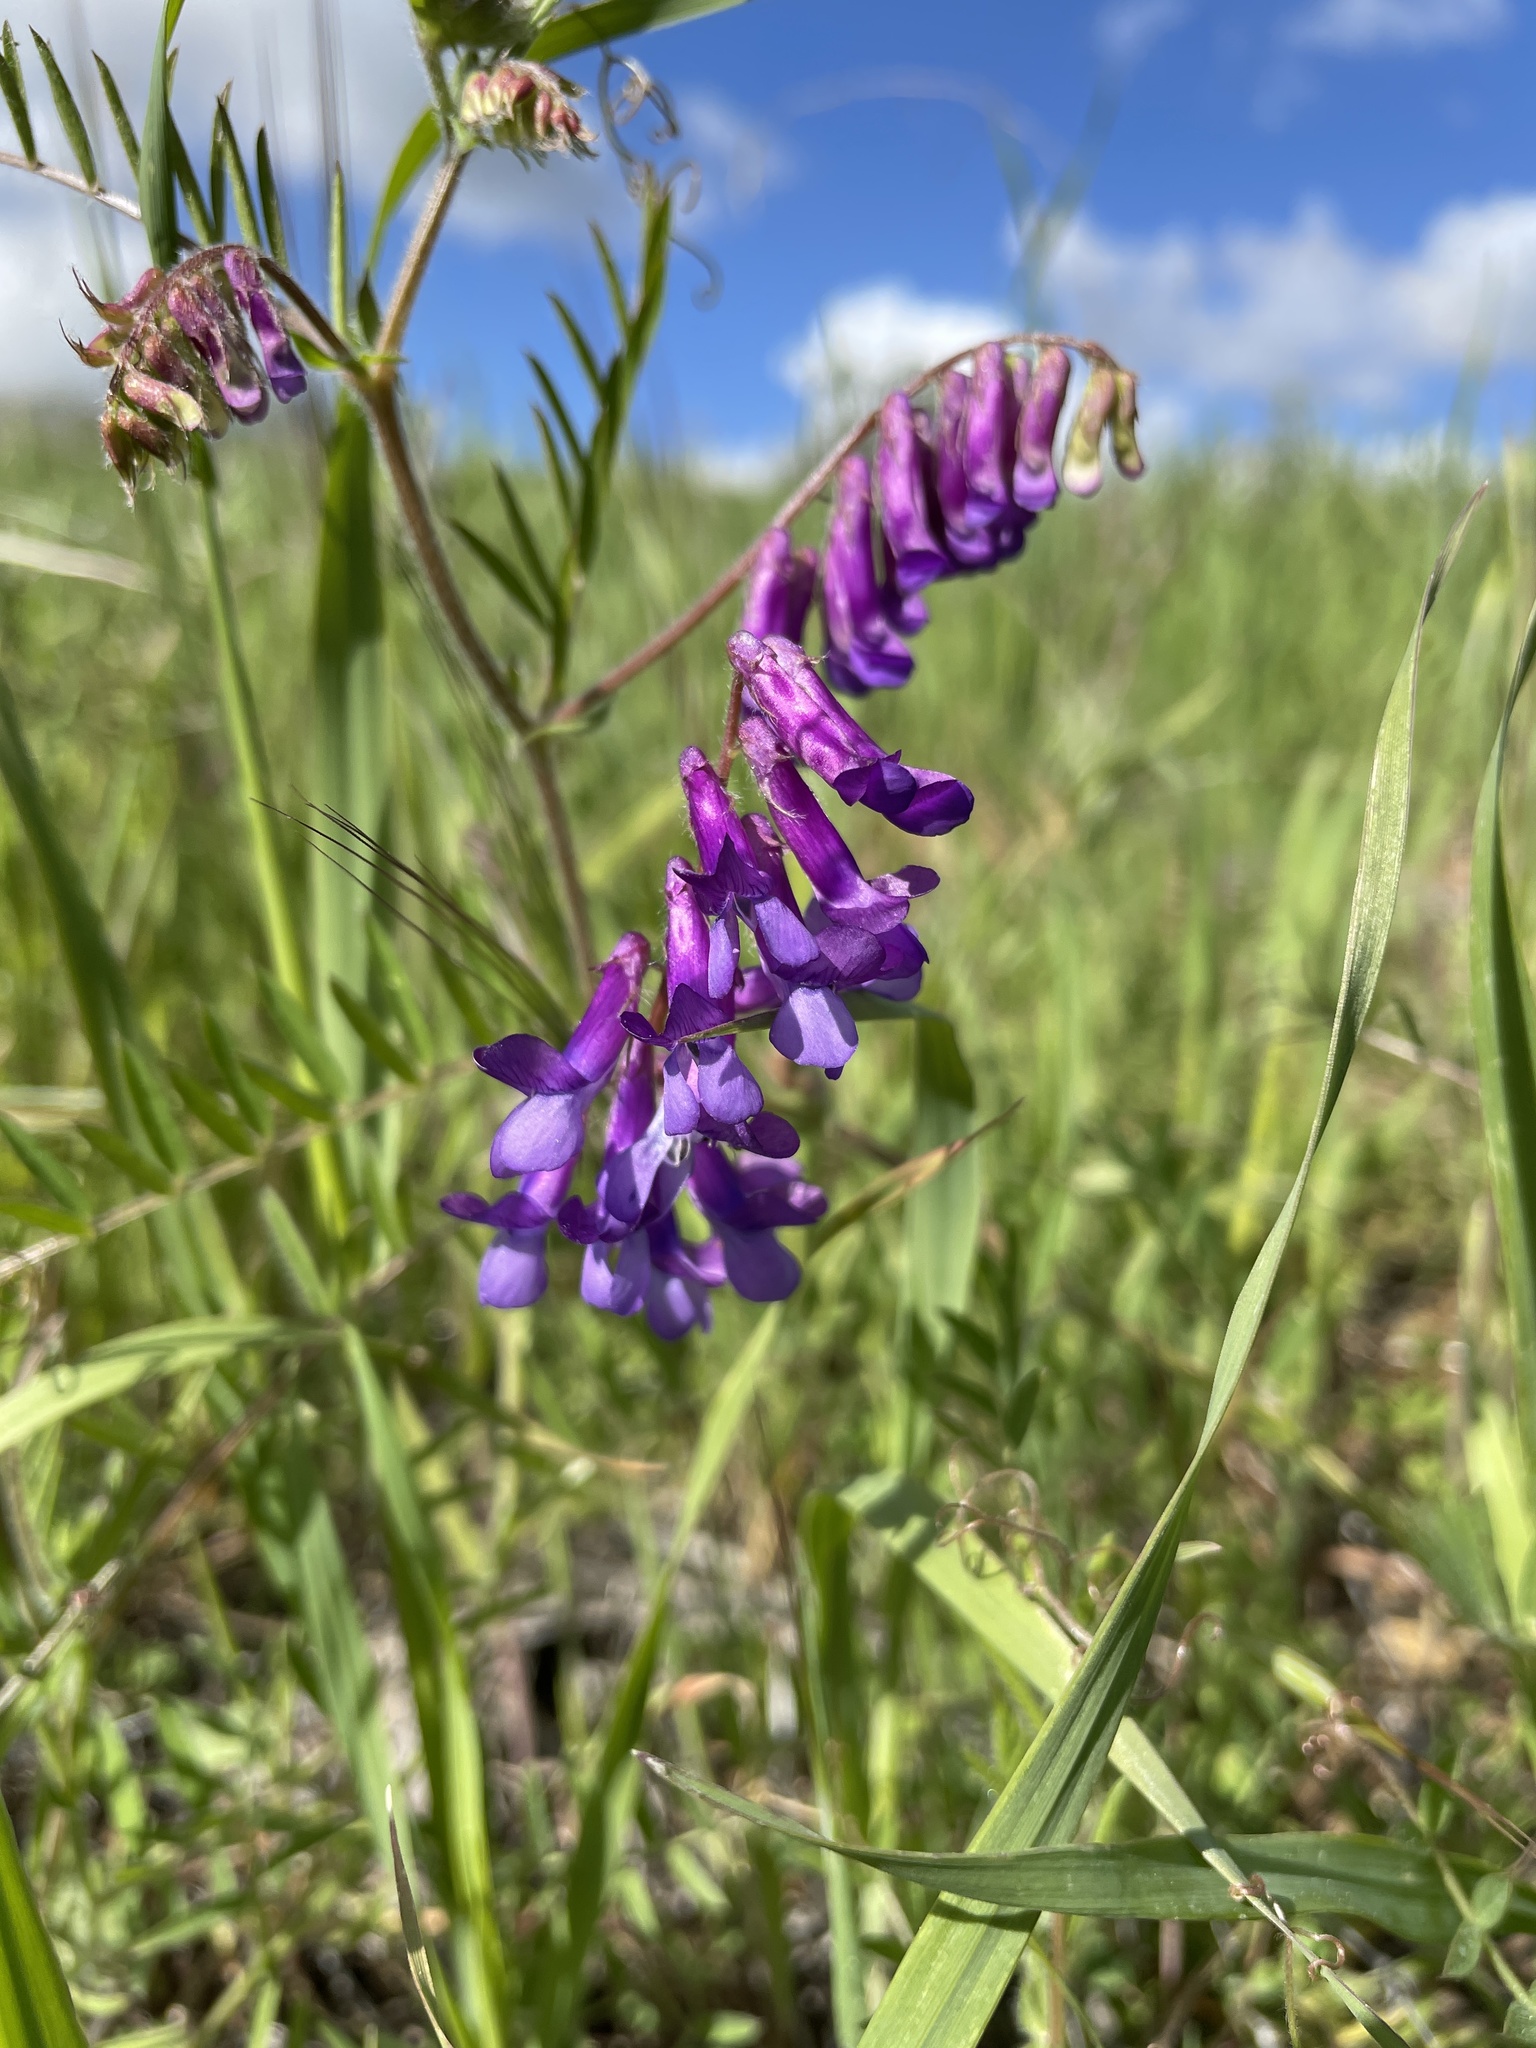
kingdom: Plantae
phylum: Tracheophyta
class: Magnoliopsida
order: Fabales
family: Fabaceae
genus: Vicia
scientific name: Vicia villosa
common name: Fodder vetch
